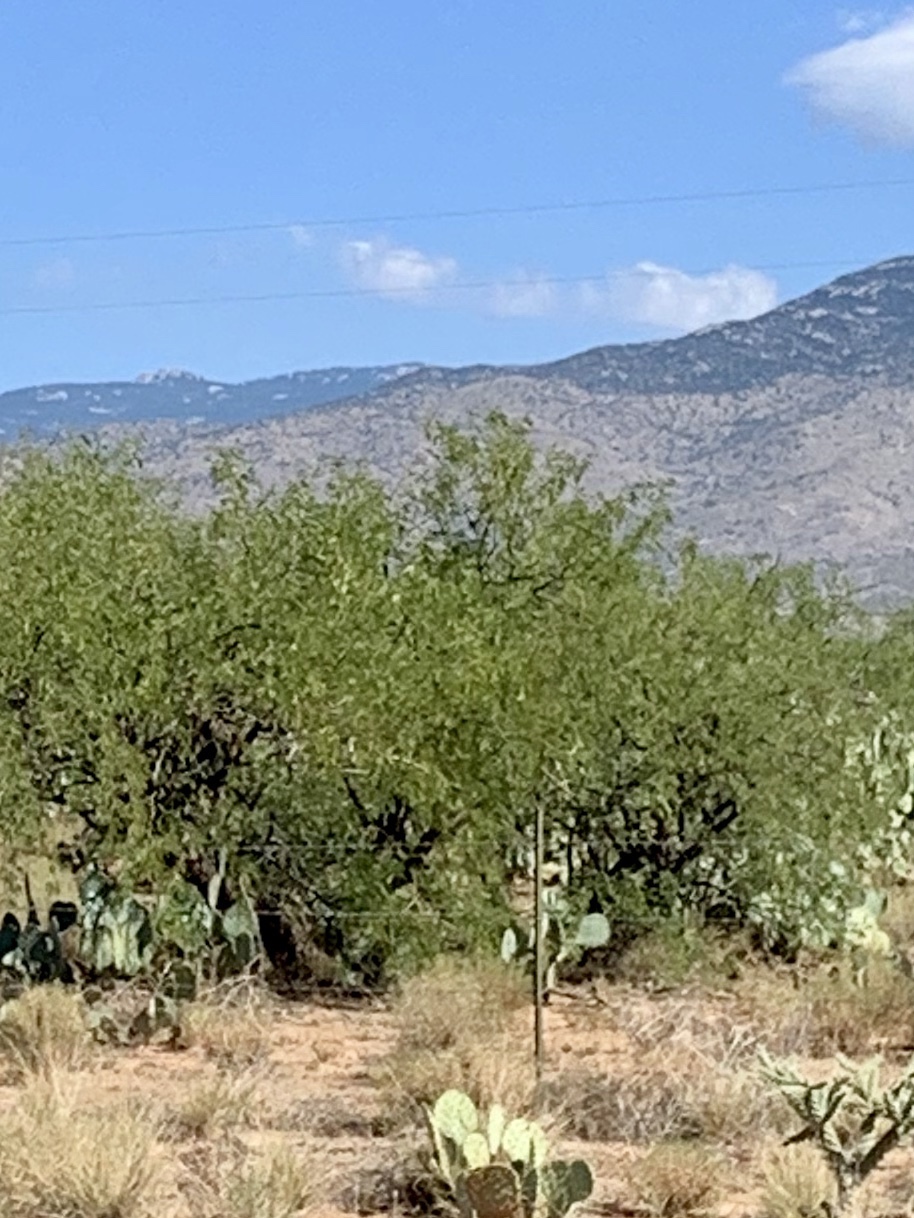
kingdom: Plantae
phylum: Tracheophyta
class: Magnoliopsida
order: Zygophyllales
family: Zygophyllaceae
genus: Larrea
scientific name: Larrea tridentata
